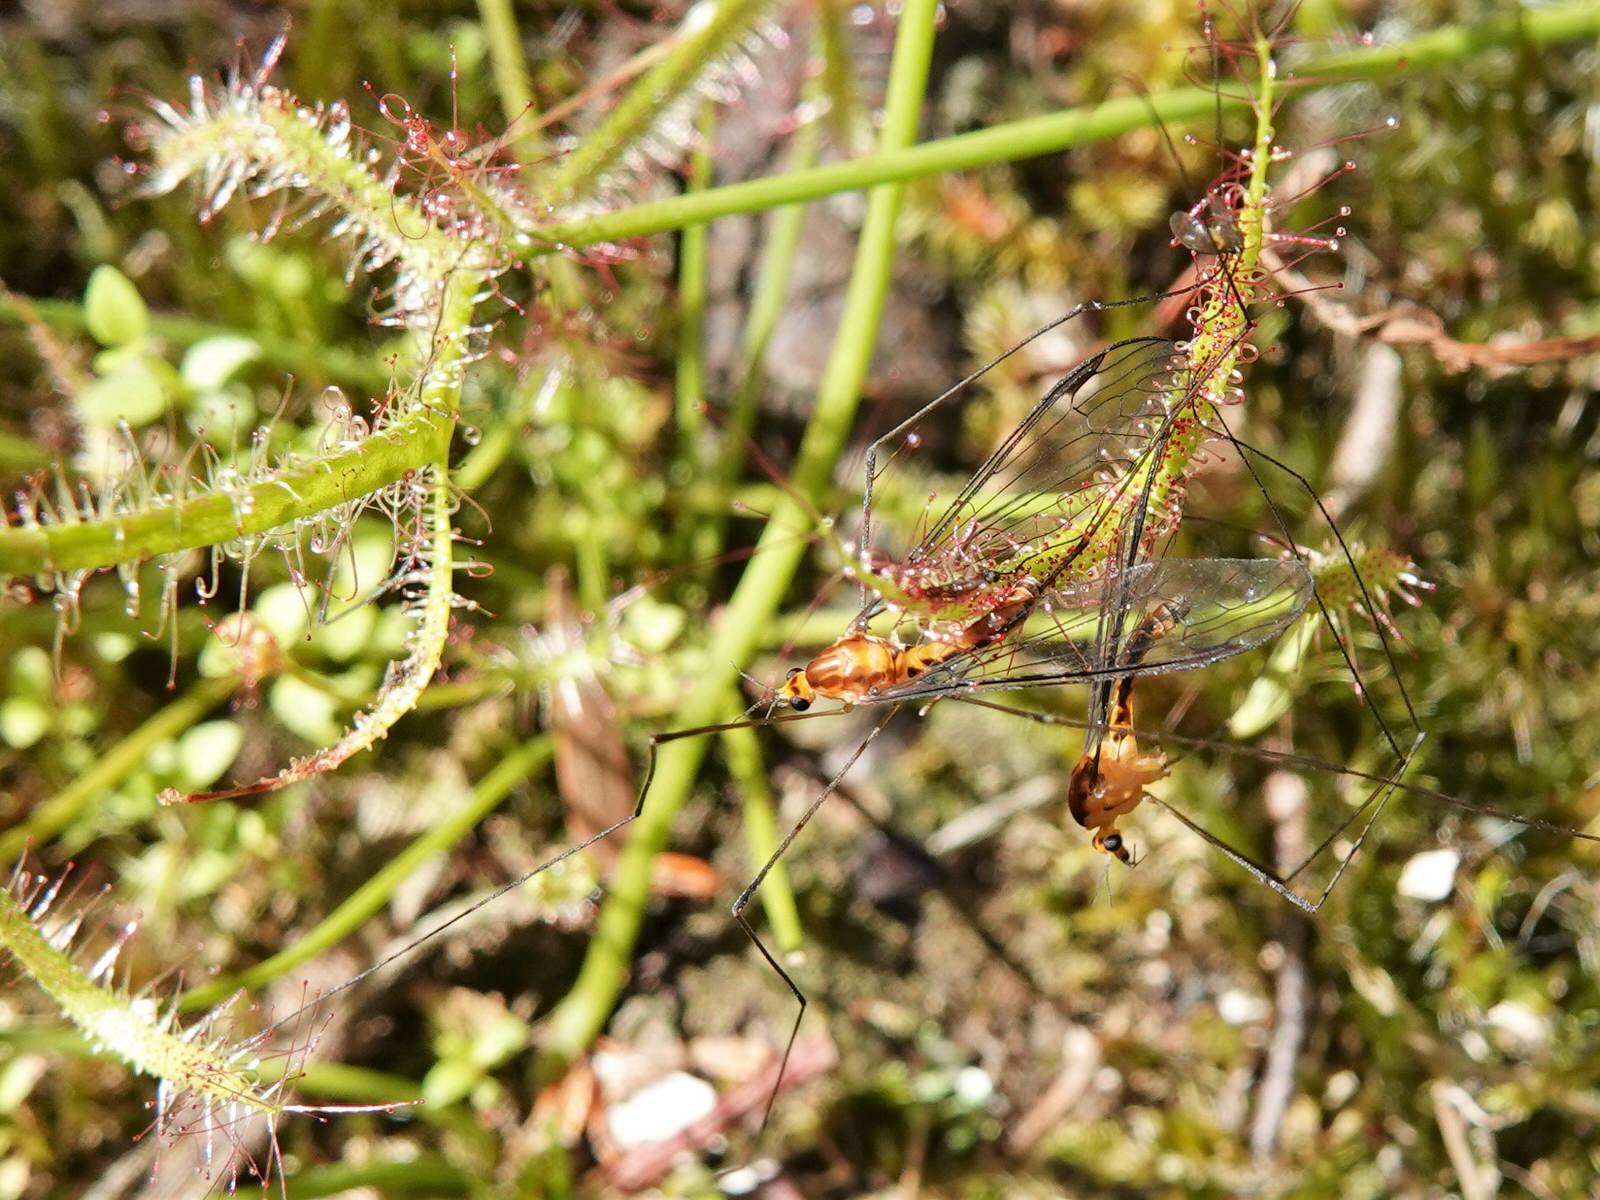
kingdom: Plantae
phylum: Tracheophyta
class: Magnoliopsida
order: Caryophyllales
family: Droseraceae
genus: Drosera
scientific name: Drosera binata
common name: Forked sundew
